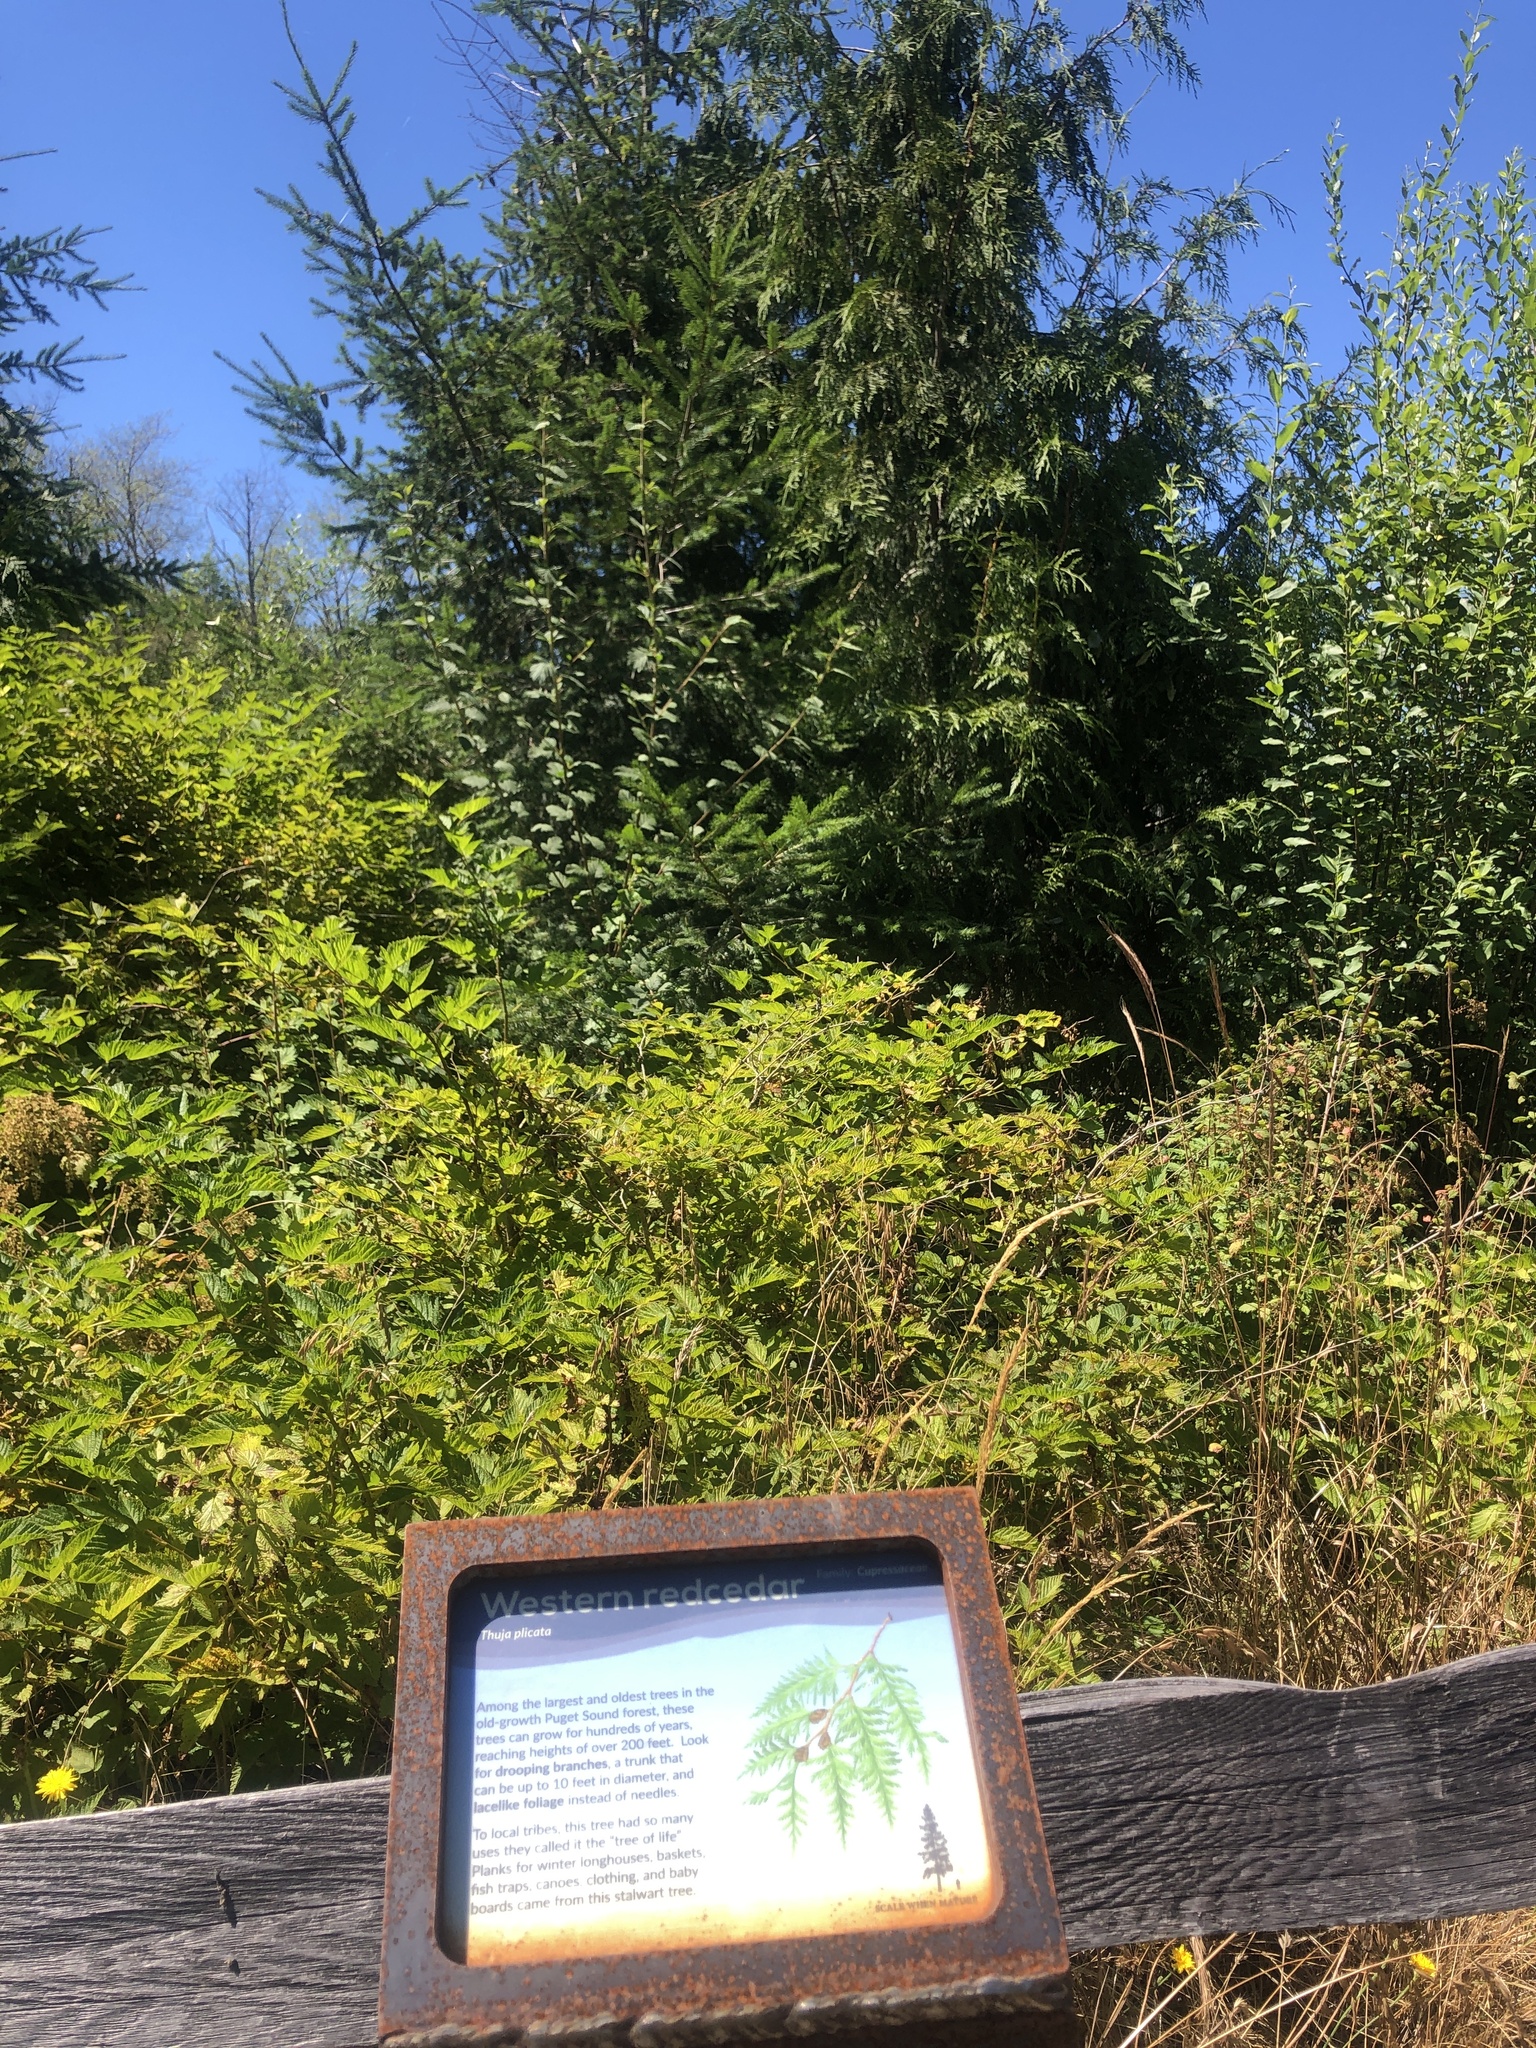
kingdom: Plantae
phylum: Tracheophyta
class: Pinopsida
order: Pinales
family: Cupressaceae
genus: Thuja
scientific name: Thuja plicata
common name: Western red-cedar
